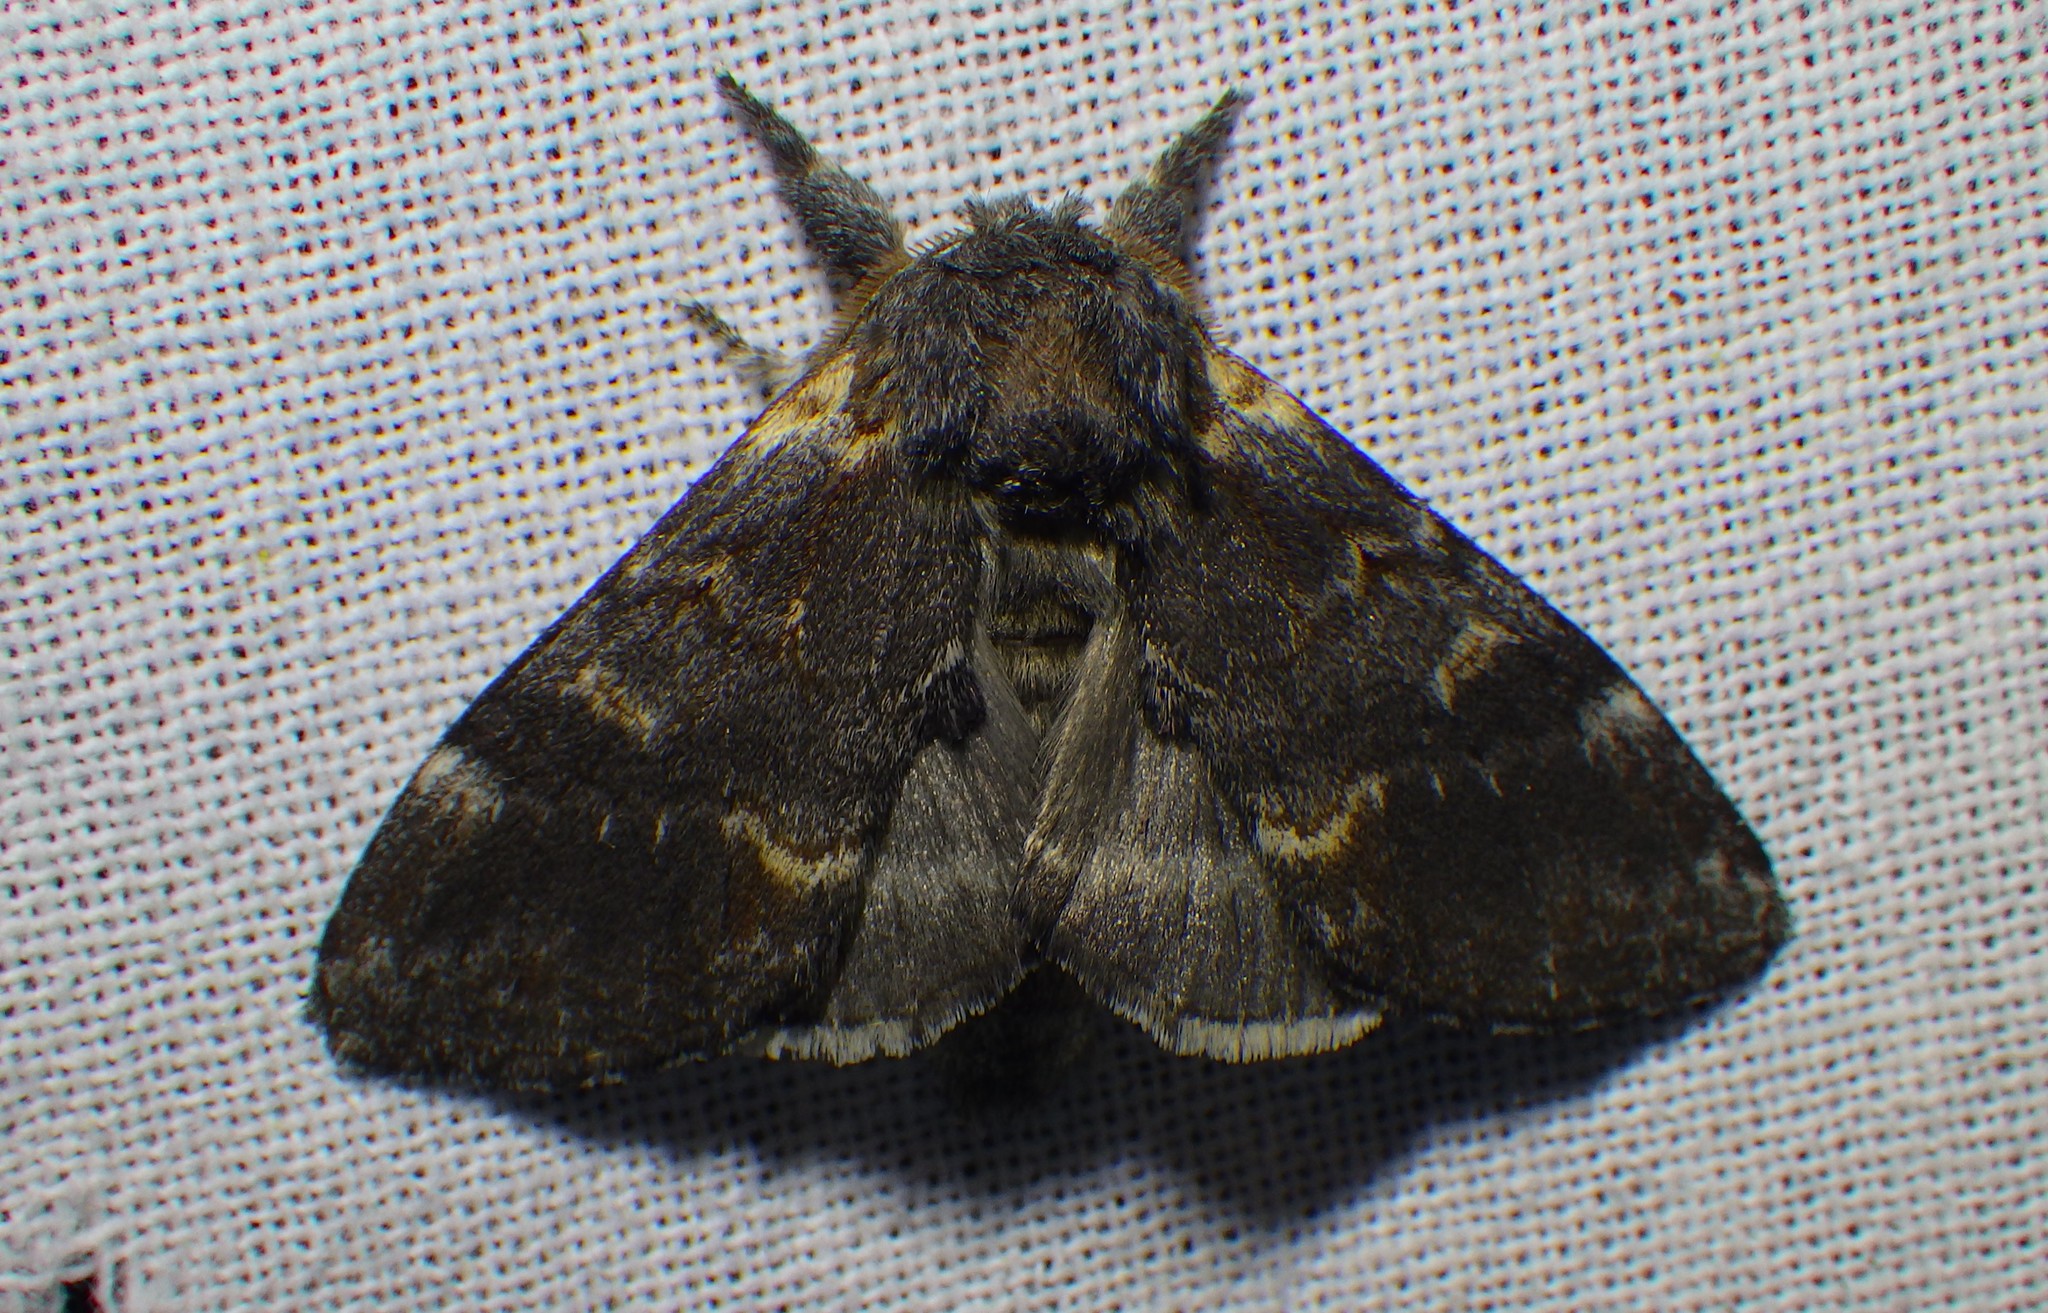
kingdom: Animalia
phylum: Arthropoda
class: Insecta
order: Lepidoptera
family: Notodontidae
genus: Notodonta
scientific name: Notodonta dromedarius
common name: Iron prominent
